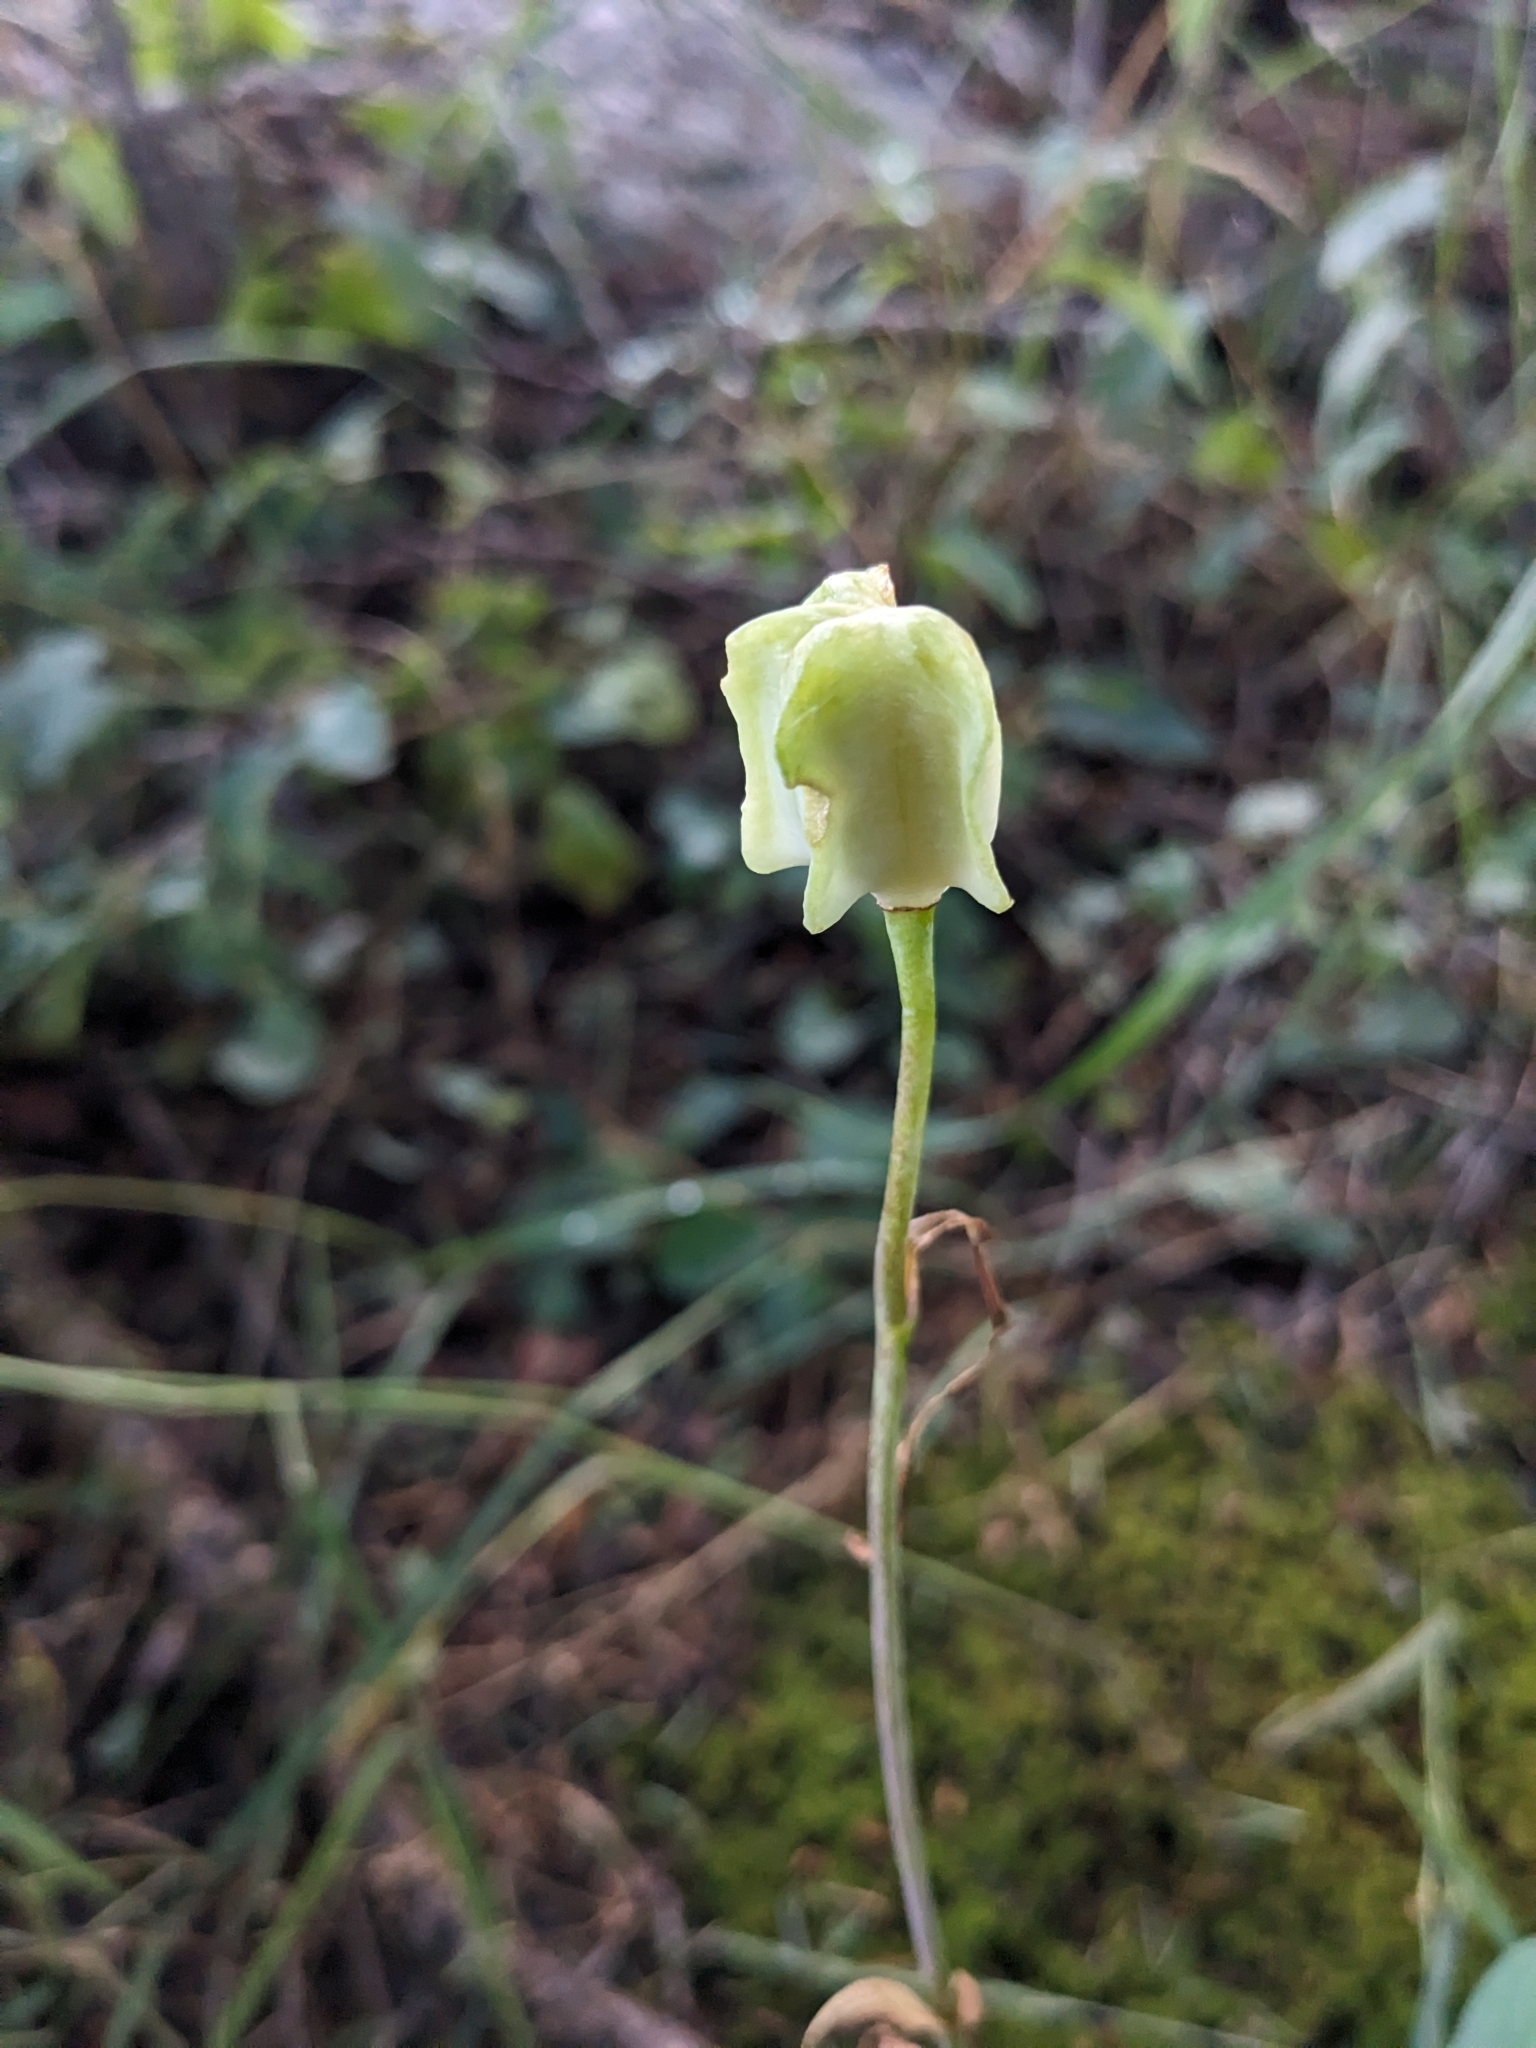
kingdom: Plantae
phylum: Tracheophyta
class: Liliopsida
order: Liliales
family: Liliaceae
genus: Fritillaria
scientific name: Fritillaria atropurpurea
